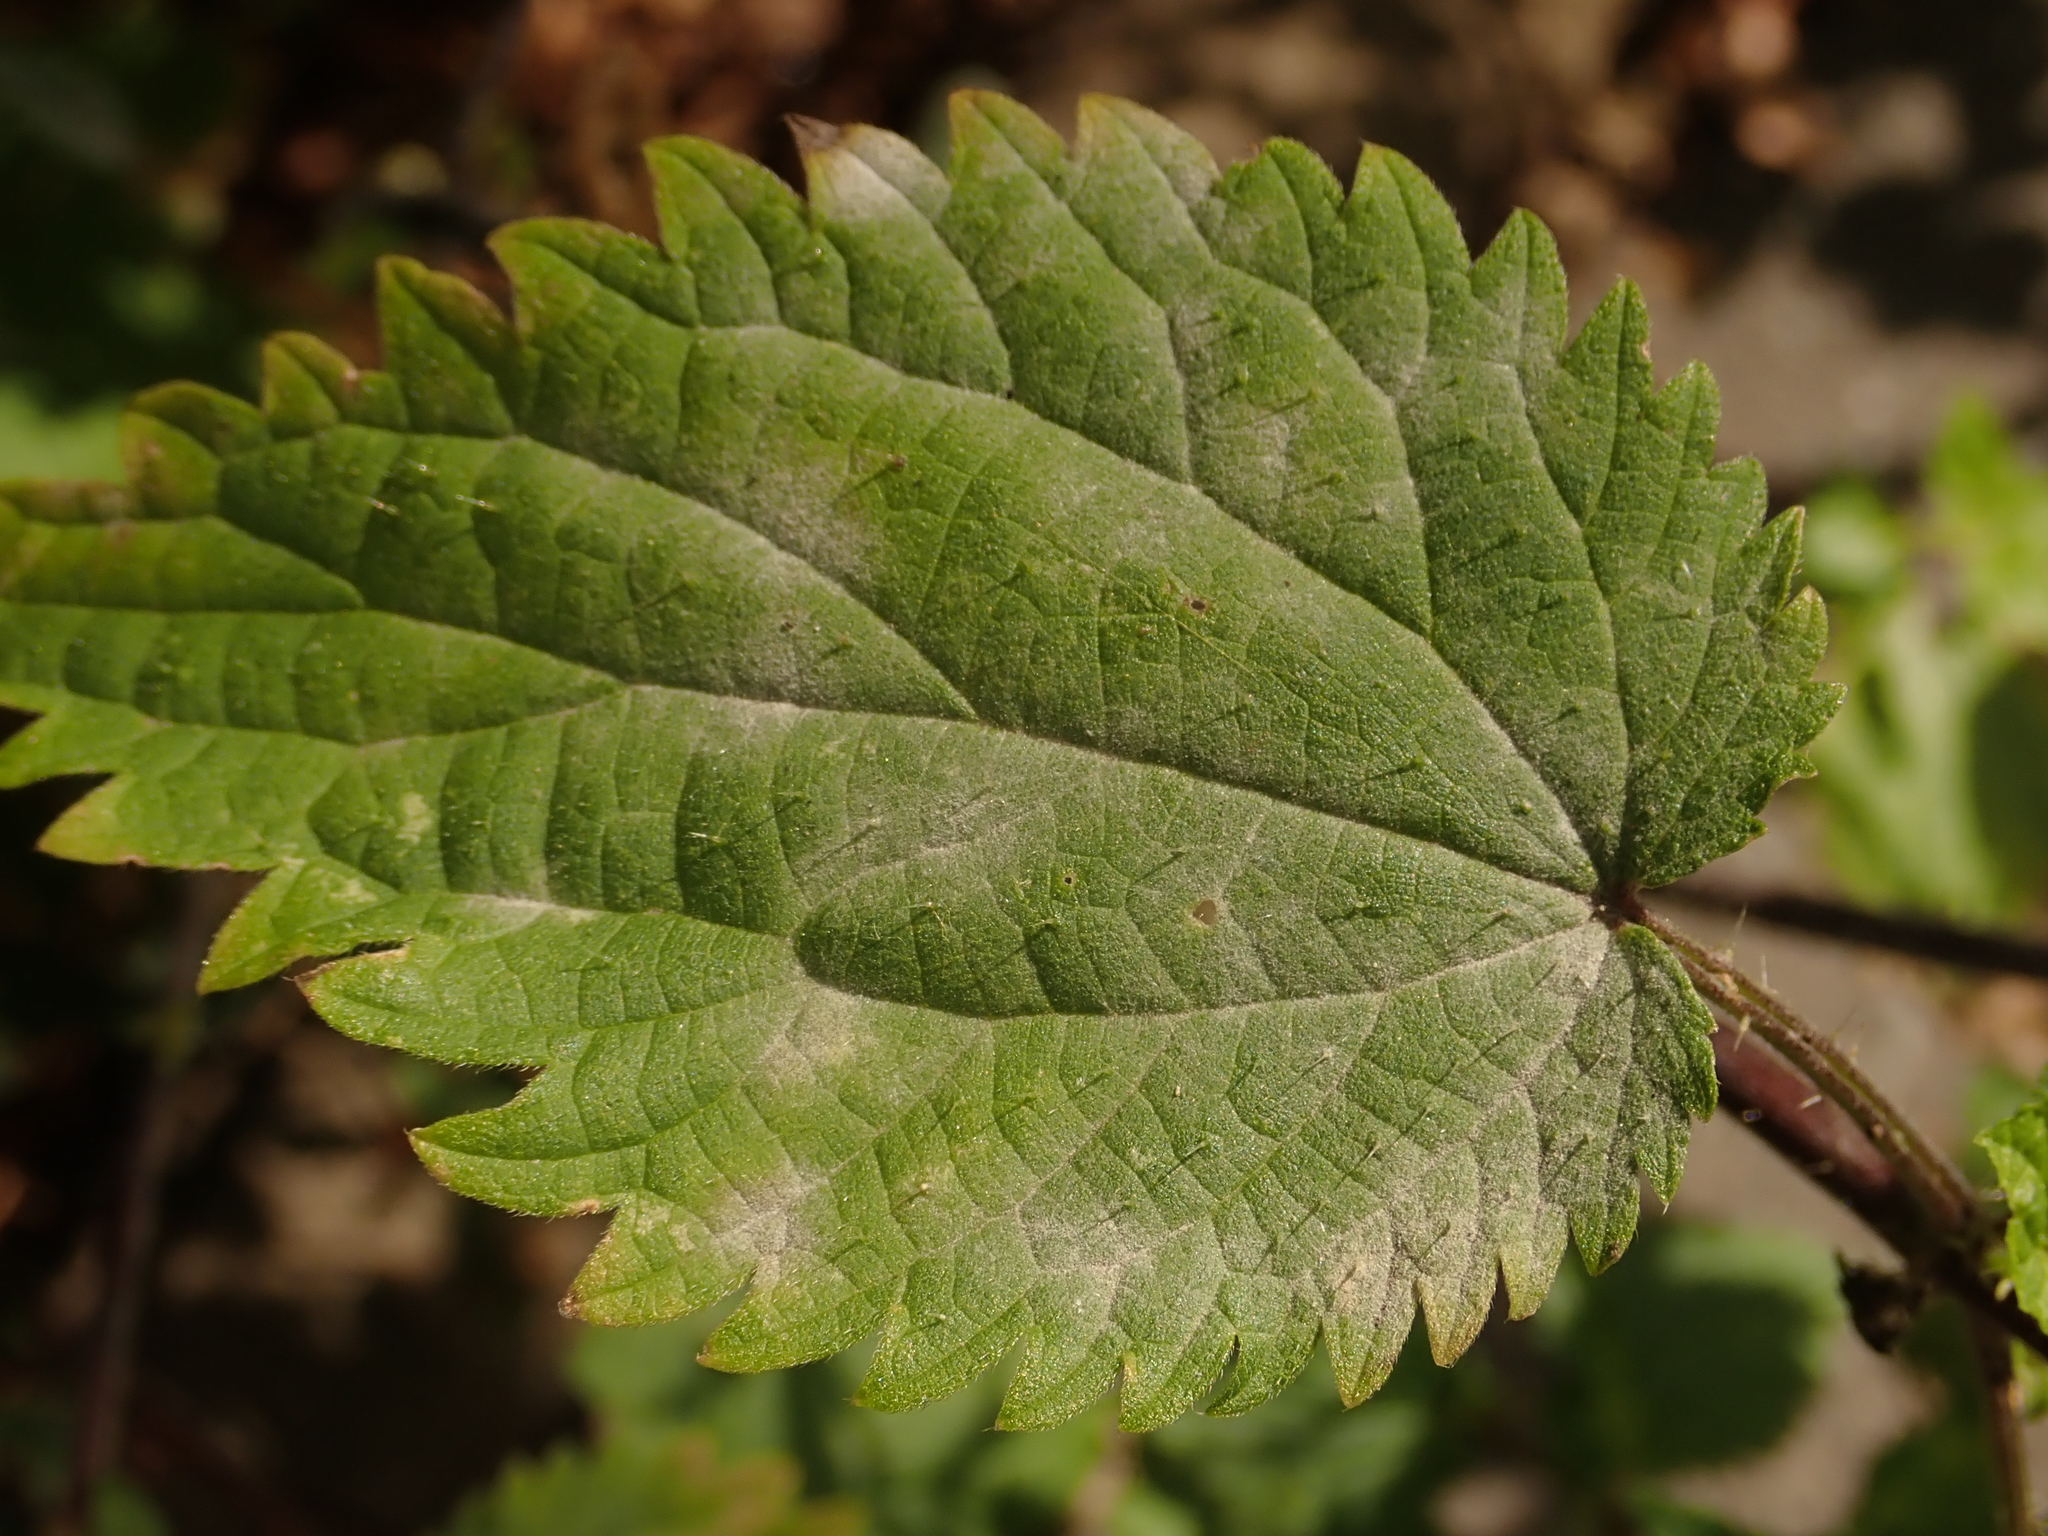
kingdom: Fungi
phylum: Ascomycota
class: Leotiomycetes
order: Helotiales
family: Erysiphaceae
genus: Erysiphe
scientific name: Erysiphe urticae
